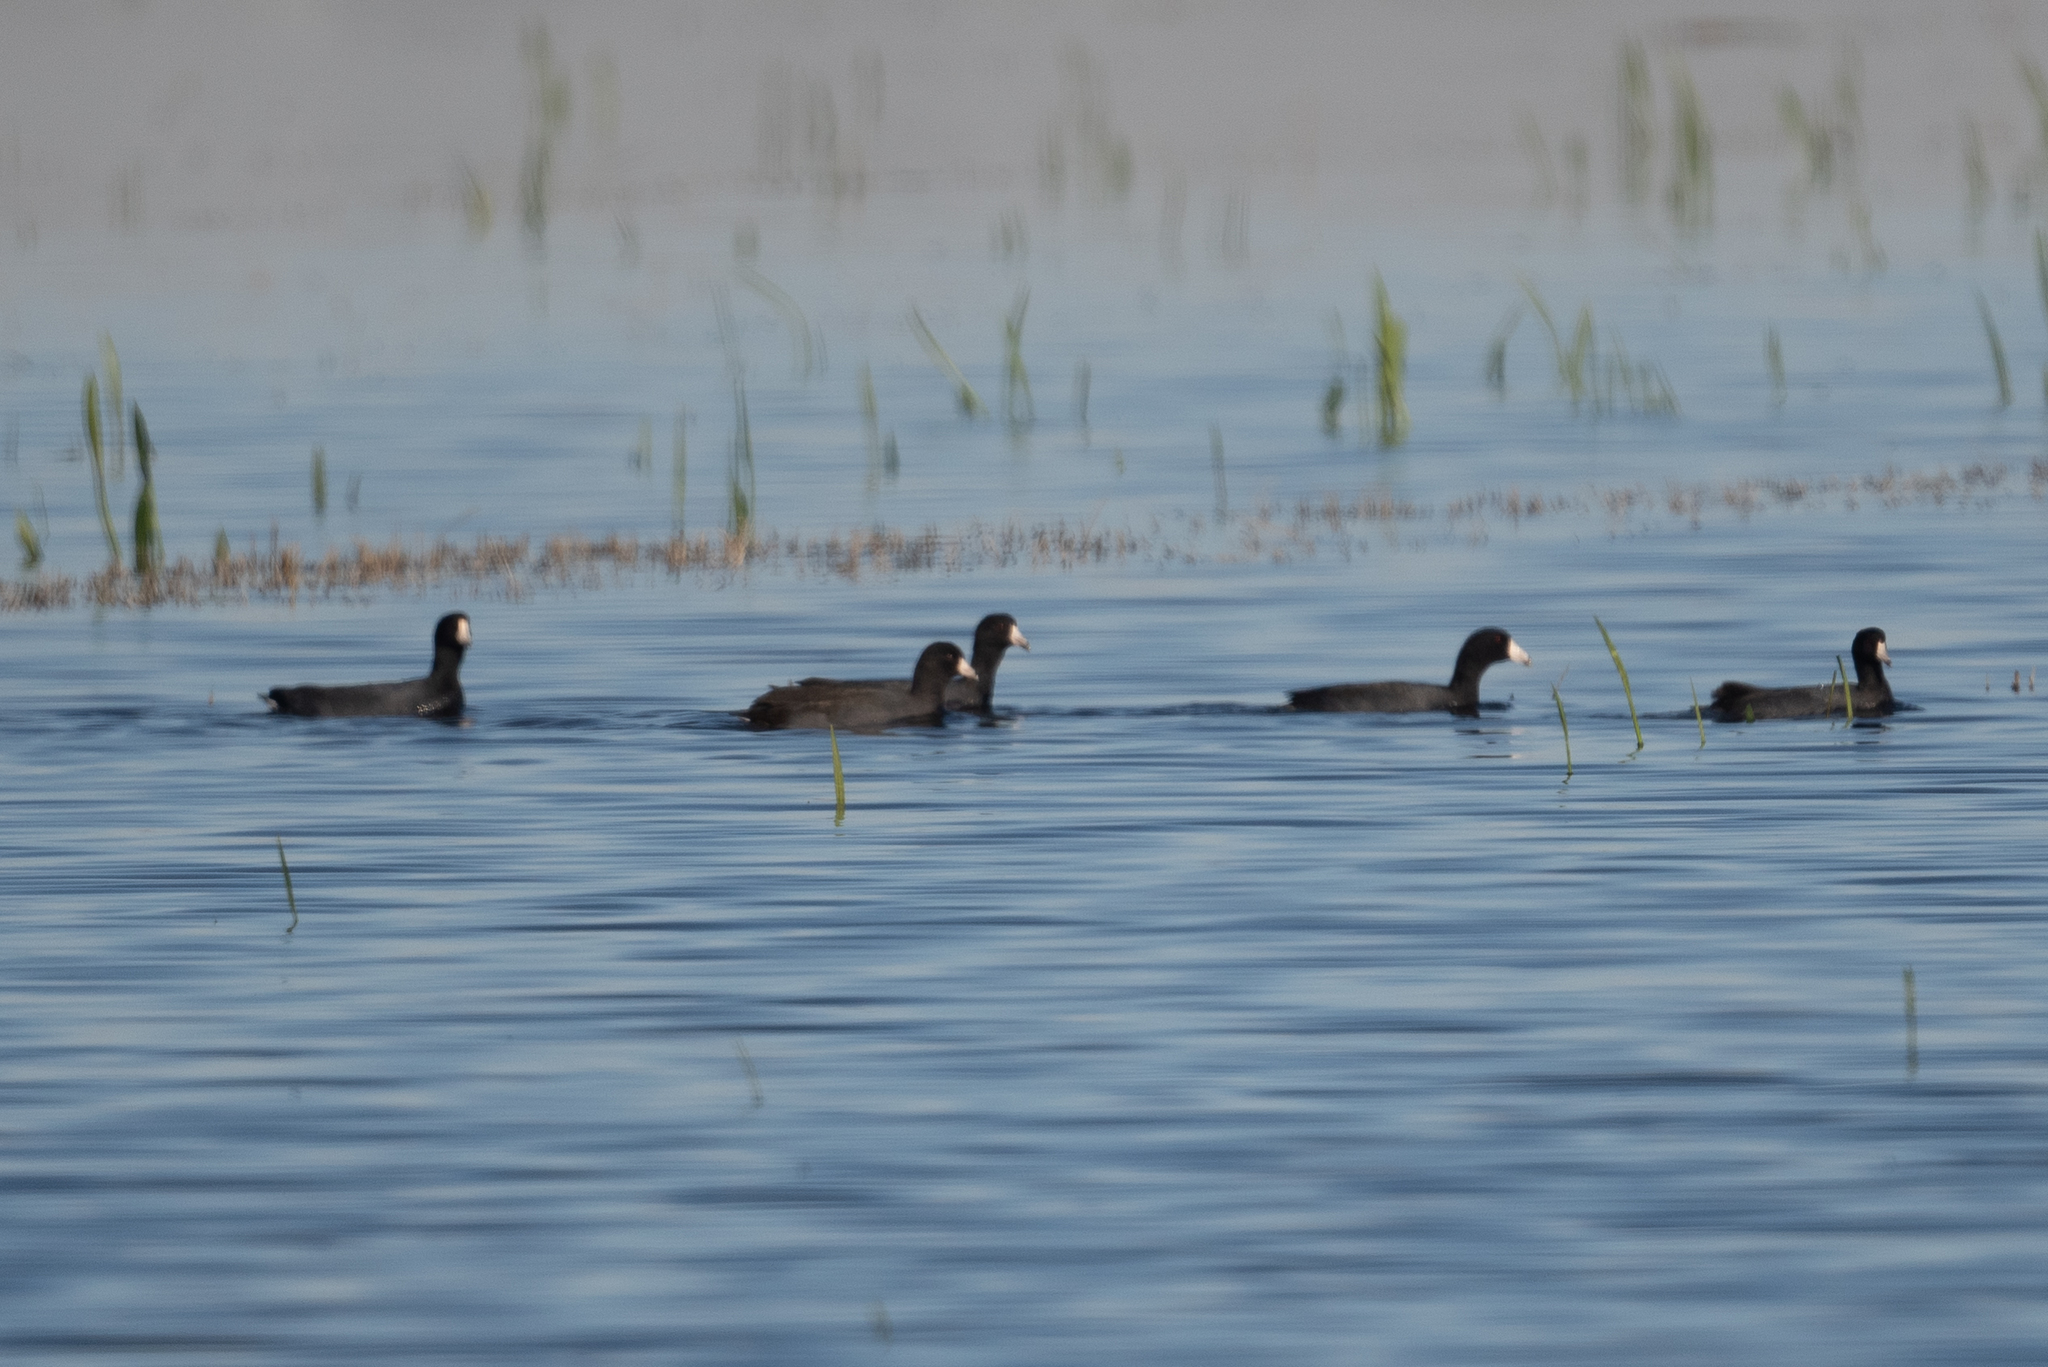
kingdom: Animalia
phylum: Chordata
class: Aves
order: Gruiformes
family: Rallidae
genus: Fulica
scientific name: Fulica americana
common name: American coot
